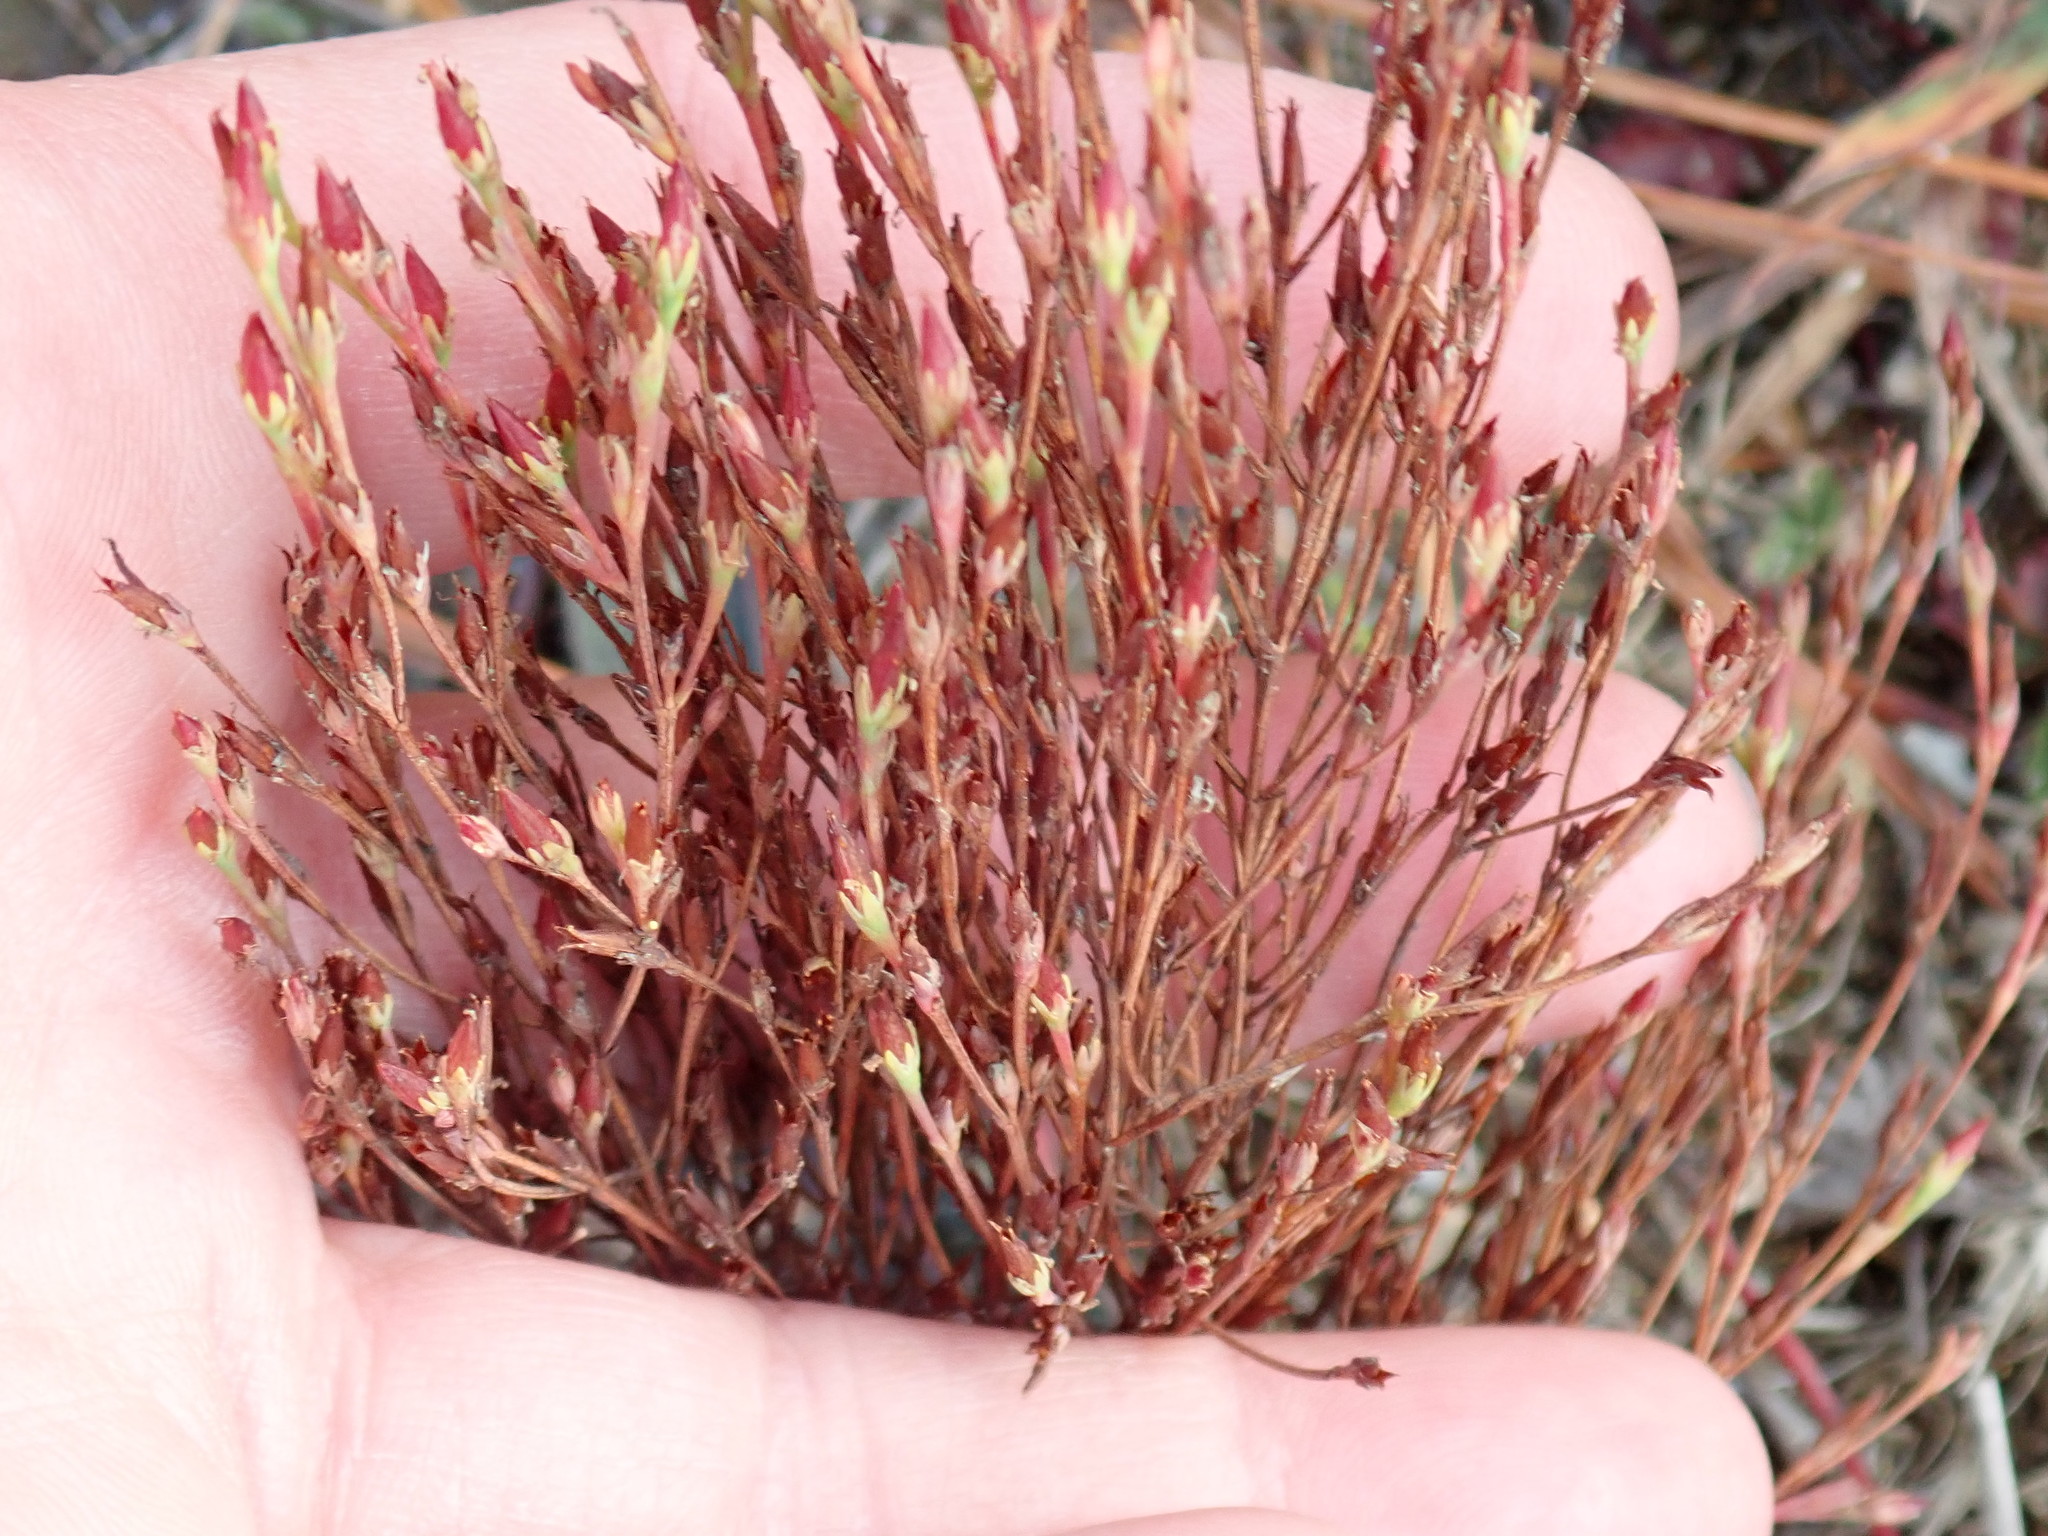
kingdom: Plantae
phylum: Tracheophyta
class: Magnoliopsida
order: Malpighiales
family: Hypericaceae
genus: Hypericum
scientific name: Hypericum gentianoides
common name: Gentian-leaved st. john's-wort
